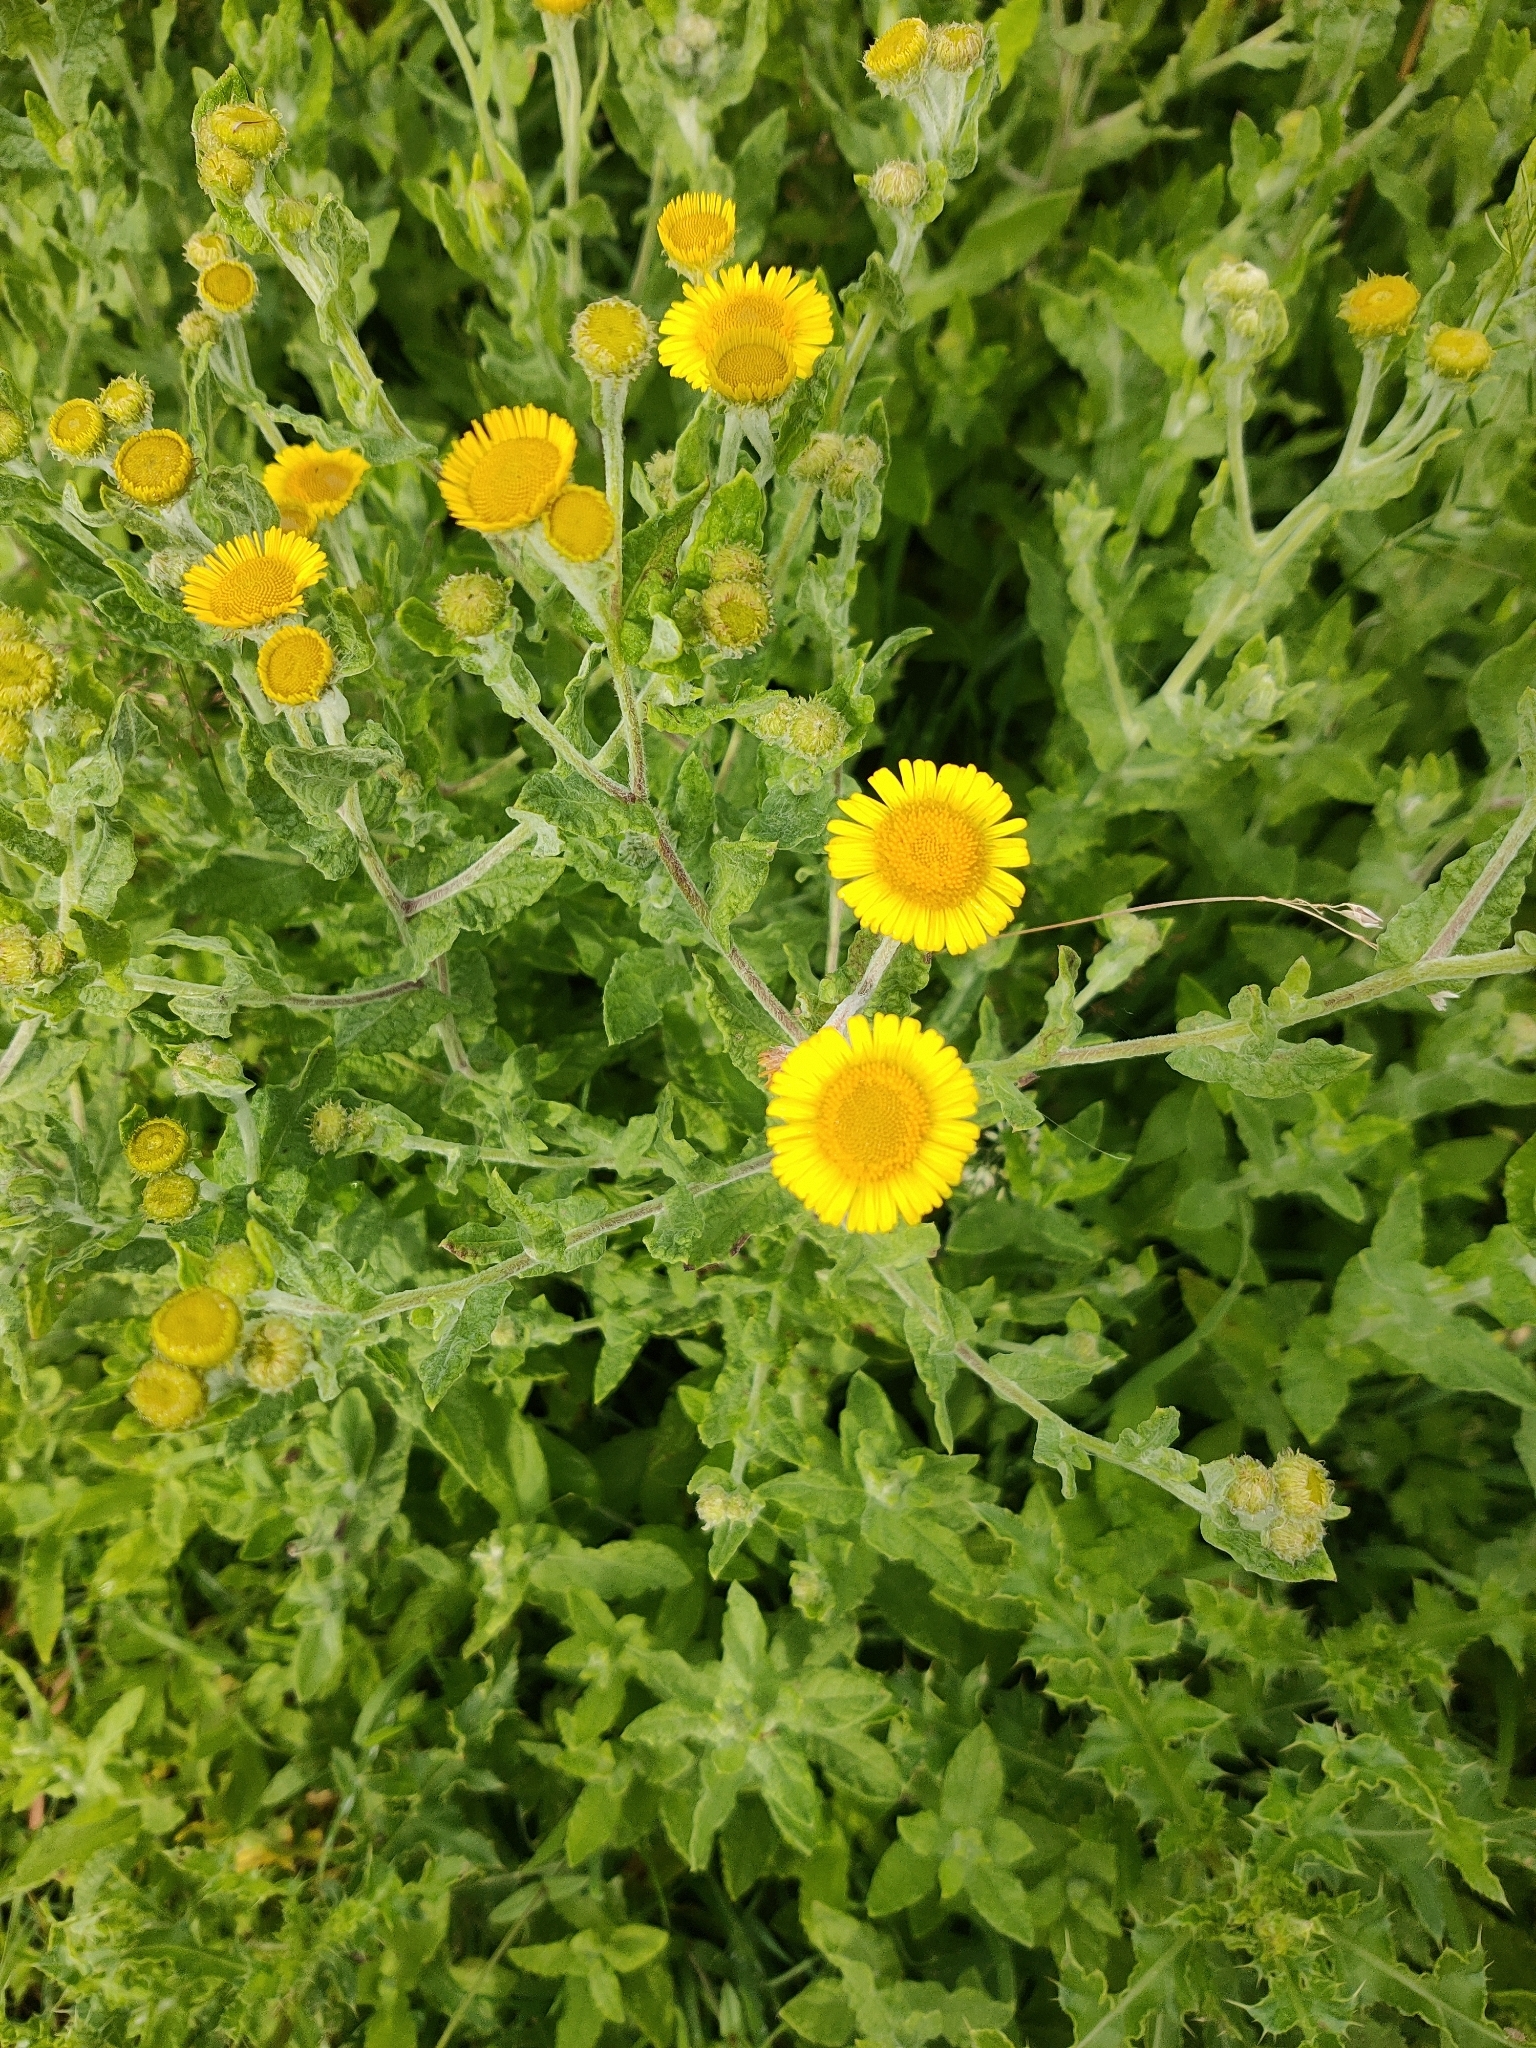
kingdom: Plantae
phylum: Tracheophyta
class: Magnoliopsida
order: Asterales
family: Asteraceae
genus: Pulicaria
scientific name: Pulicaria dysenterica
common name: Common fleabane
